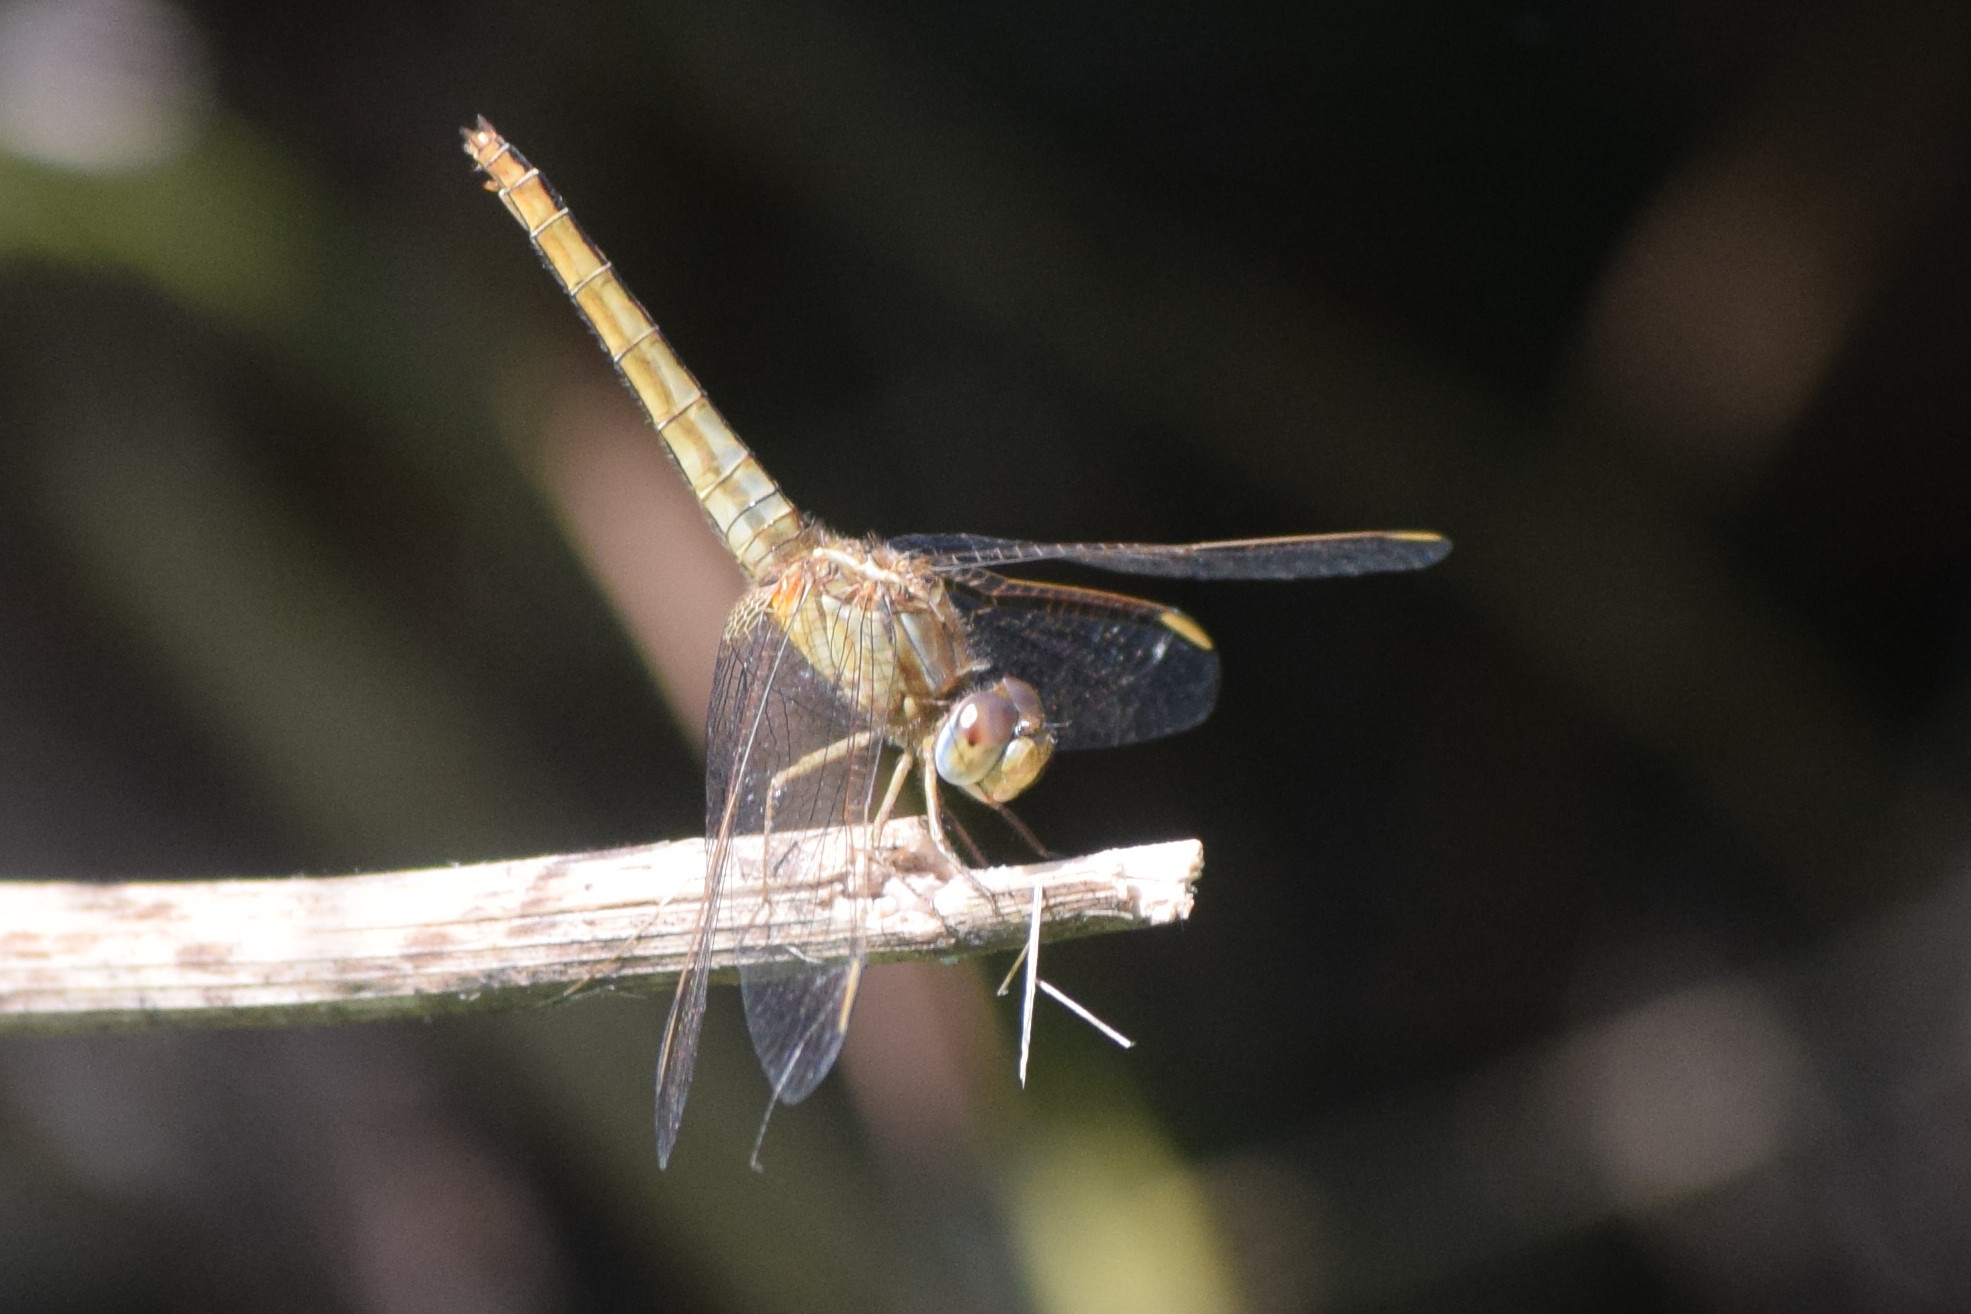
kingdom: Animalia
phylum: Arthropoda
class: Insecta
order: Odonata
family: Libellulidae
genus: Crocothemis
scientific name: Crocothemis servilia
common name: Scarlet skimmer
